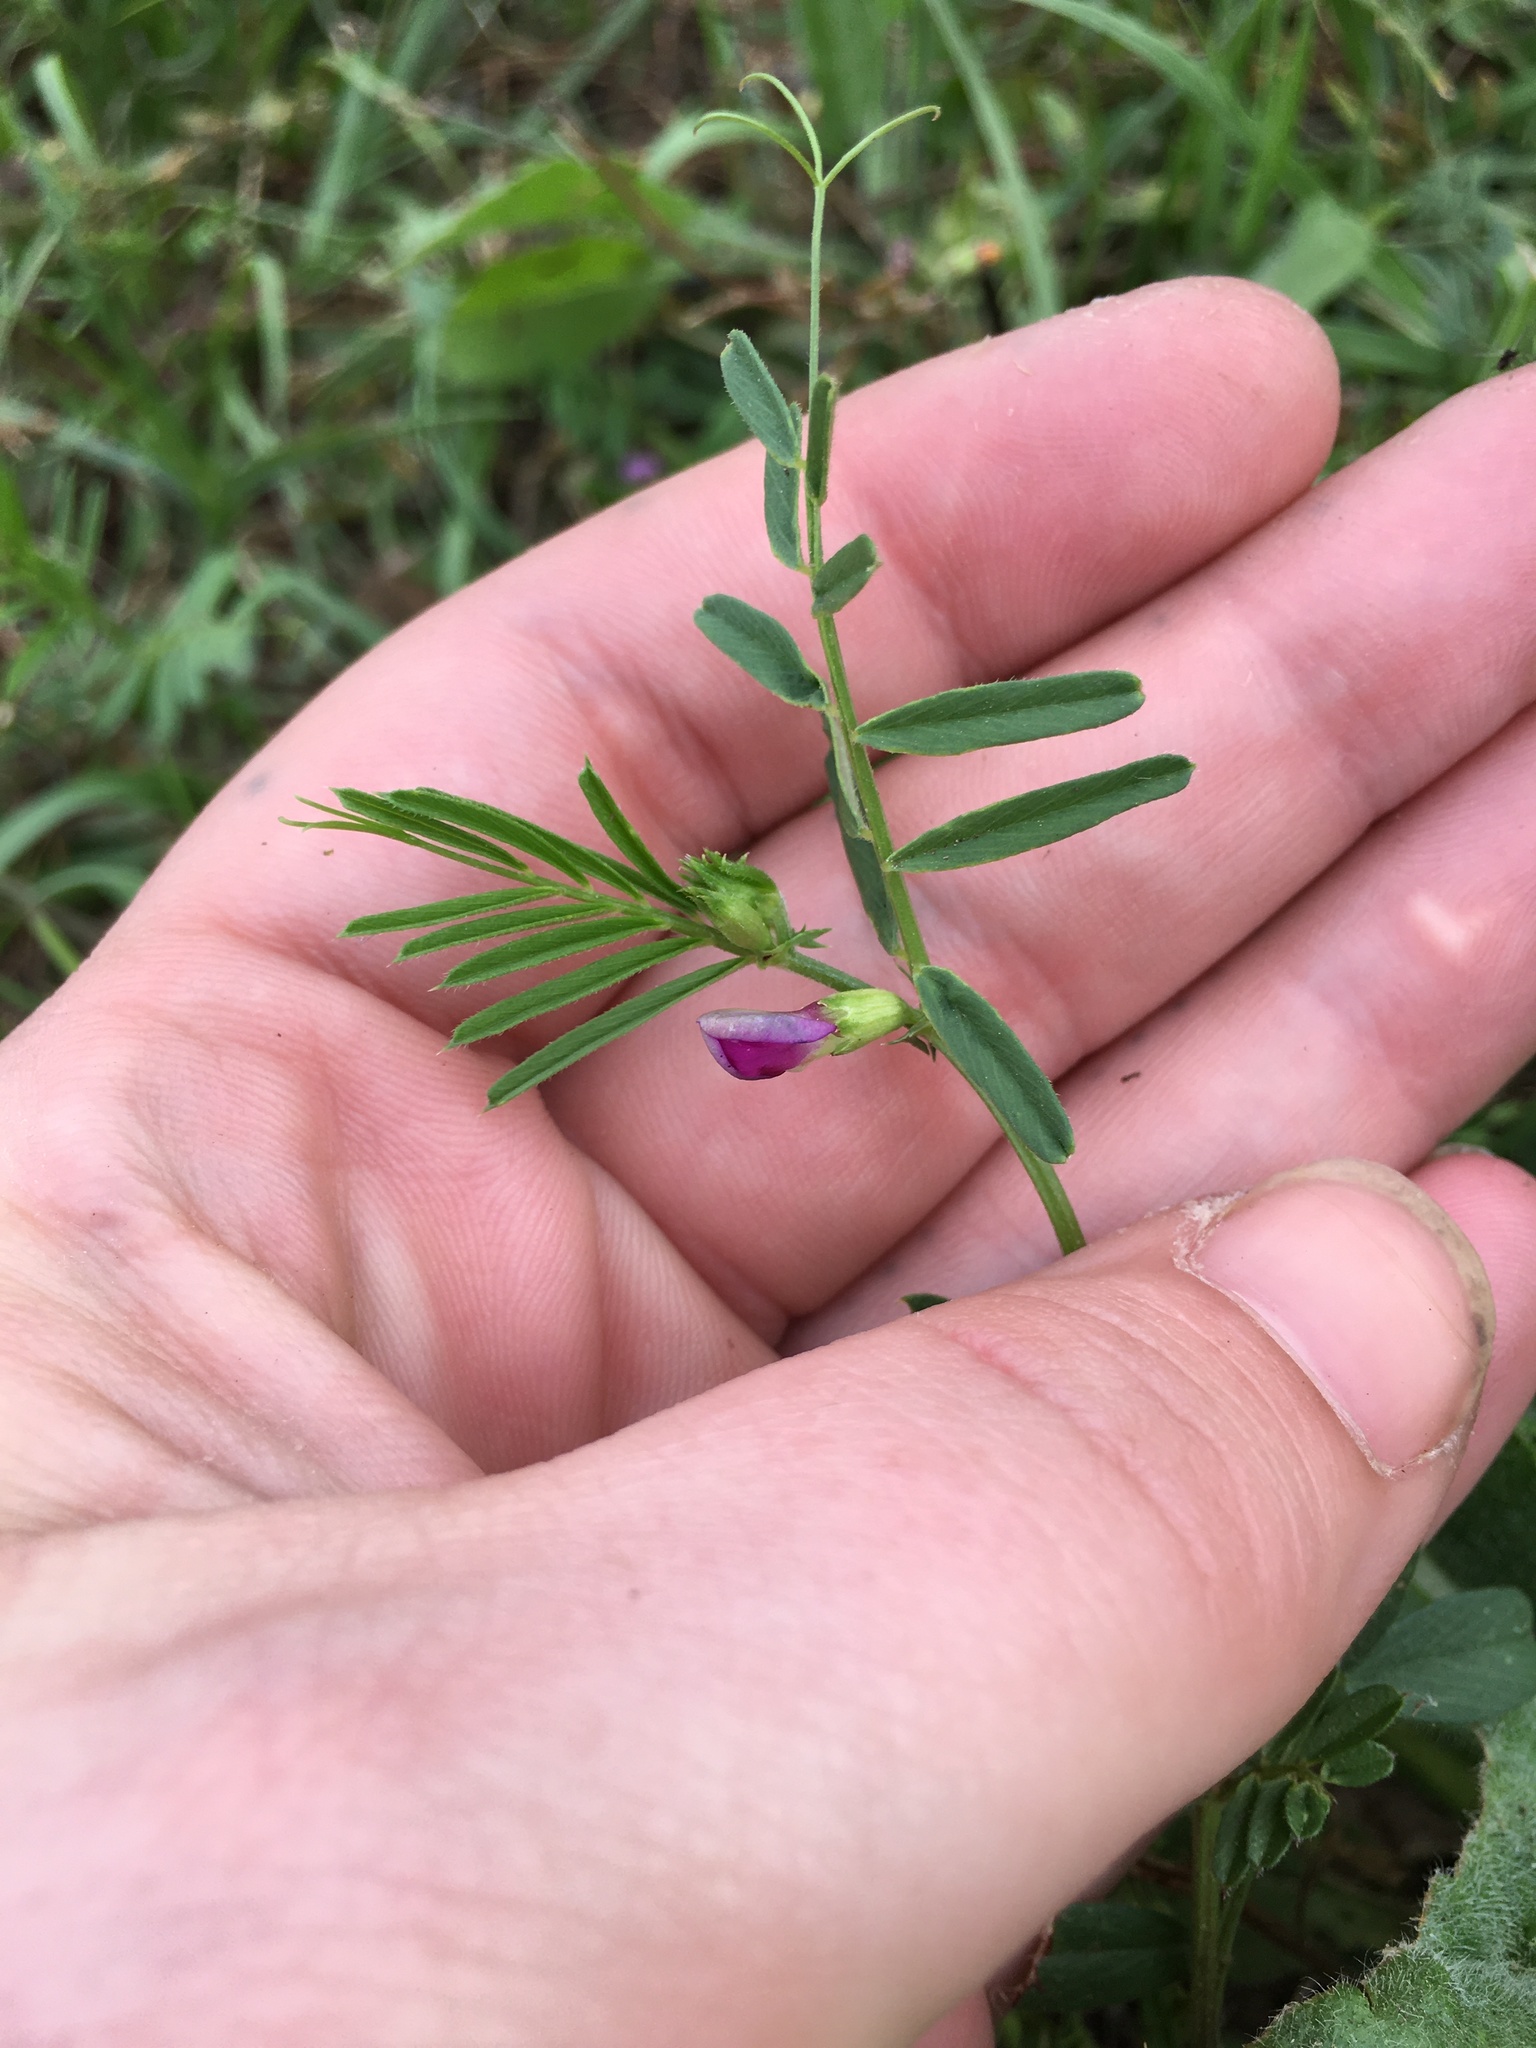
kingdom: Plantae
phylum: Tracheophyta
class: Magnoliopsida
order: Fabales
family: Fabaceae
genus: Vicia
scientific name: Vicia sativa
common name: Garden vetch
